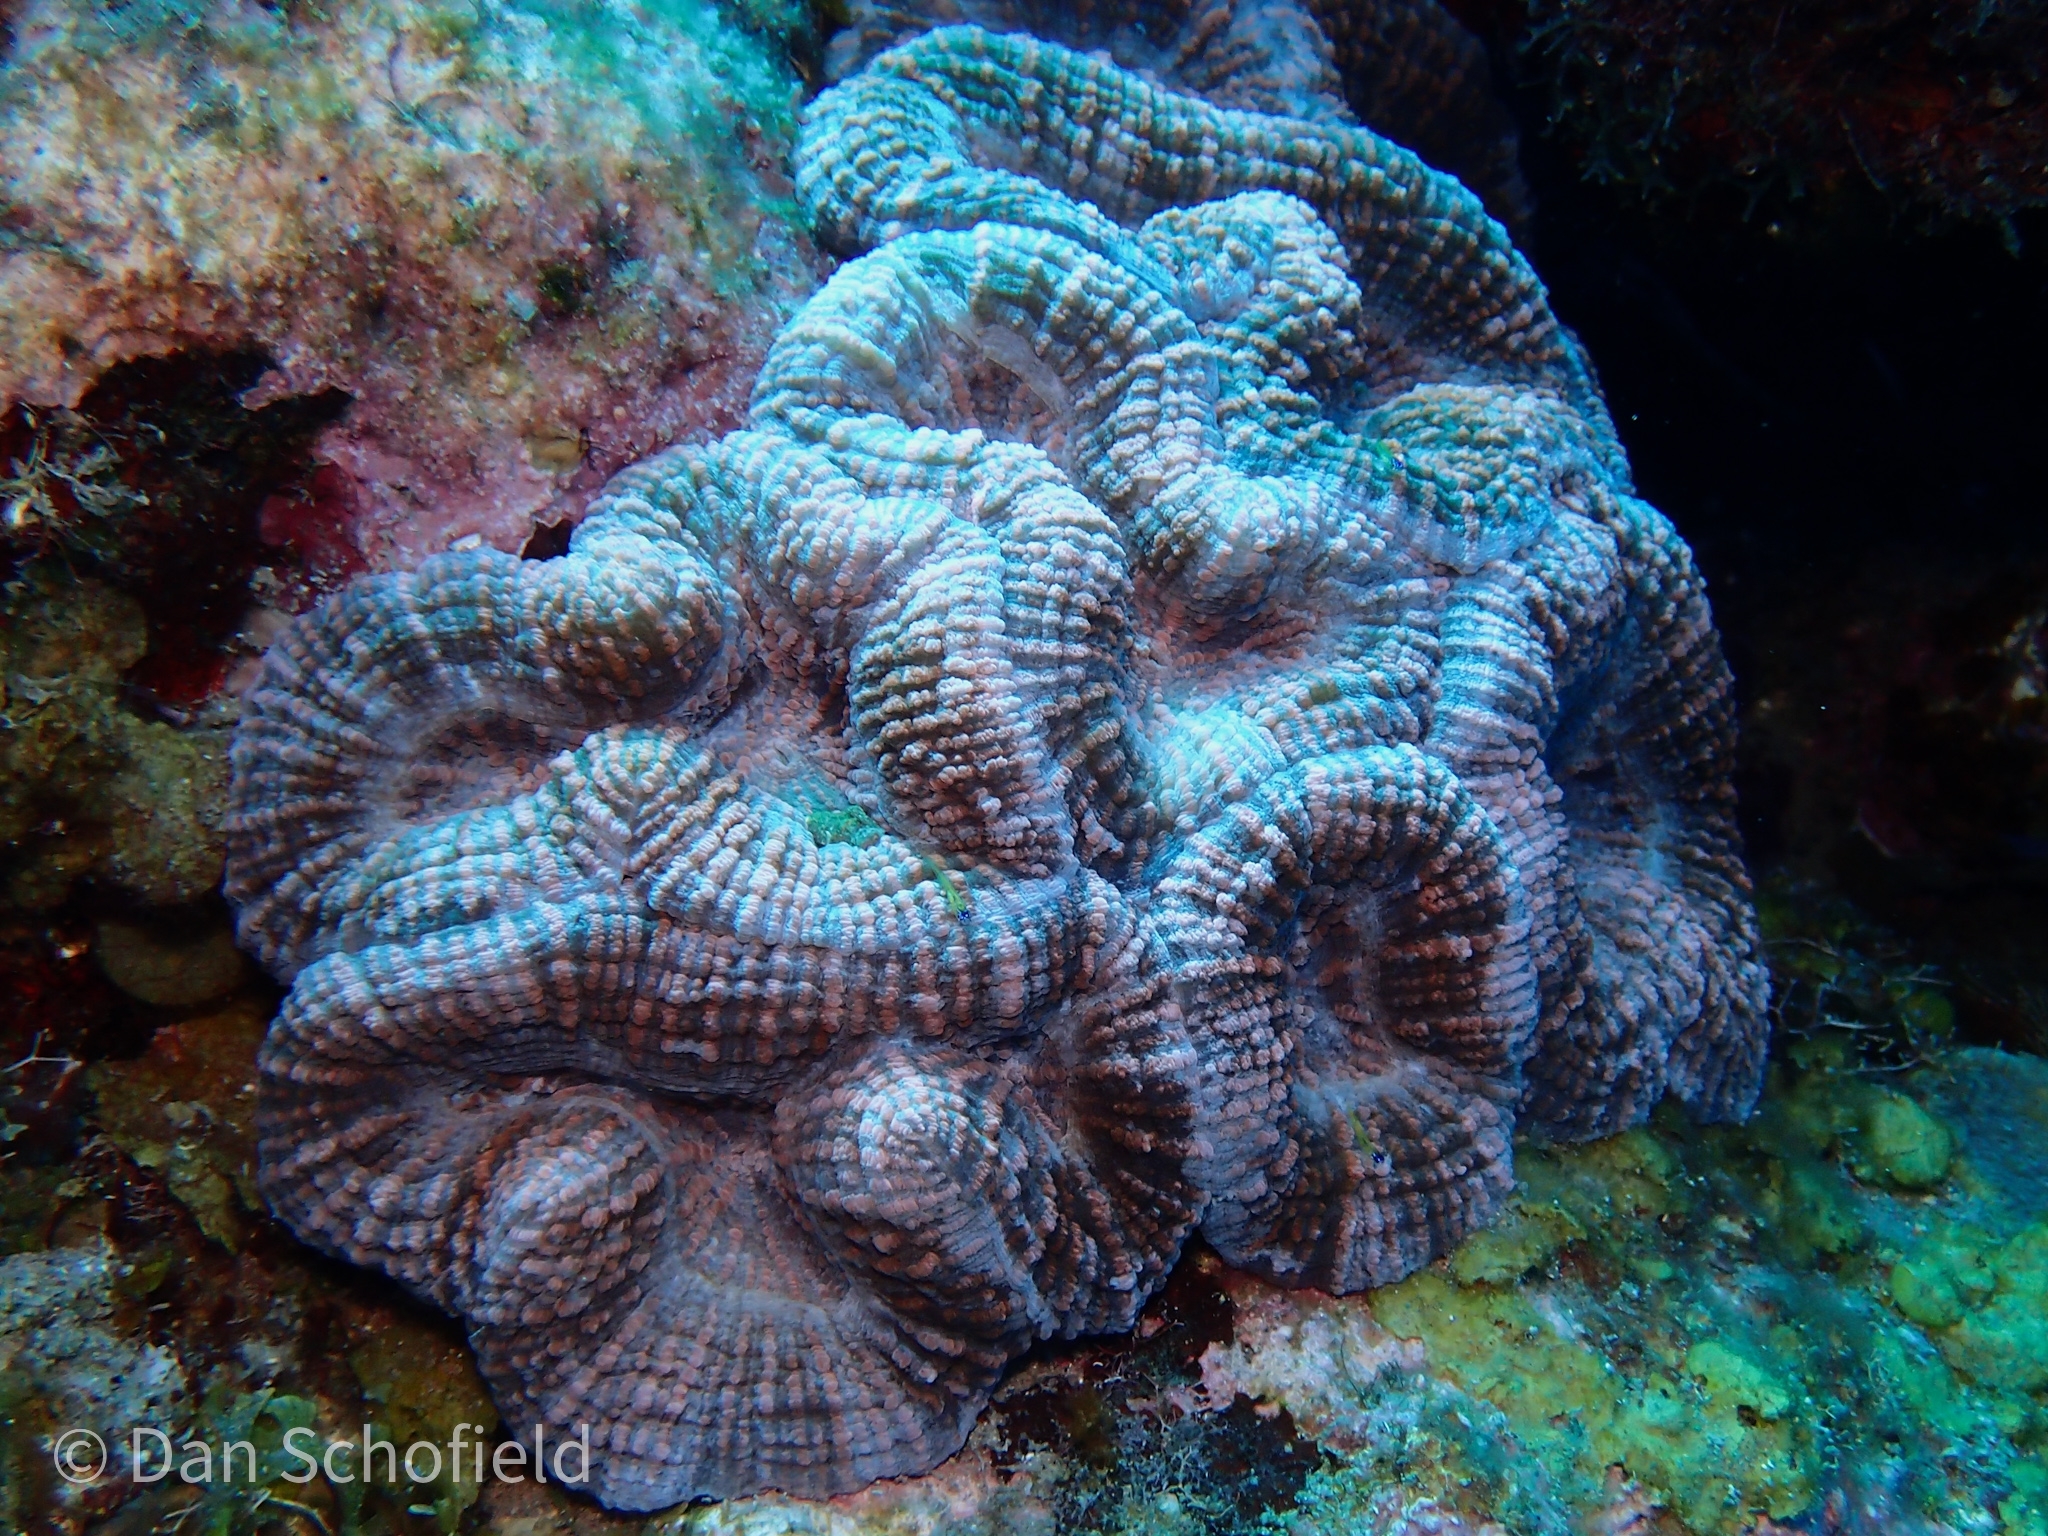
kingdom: Animalia
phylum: Cnidaria
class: Anthozoa
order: Scleractinia
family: Faviidae
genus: Mussa
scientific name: Mussa angulosa
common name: Spiny flower coral
